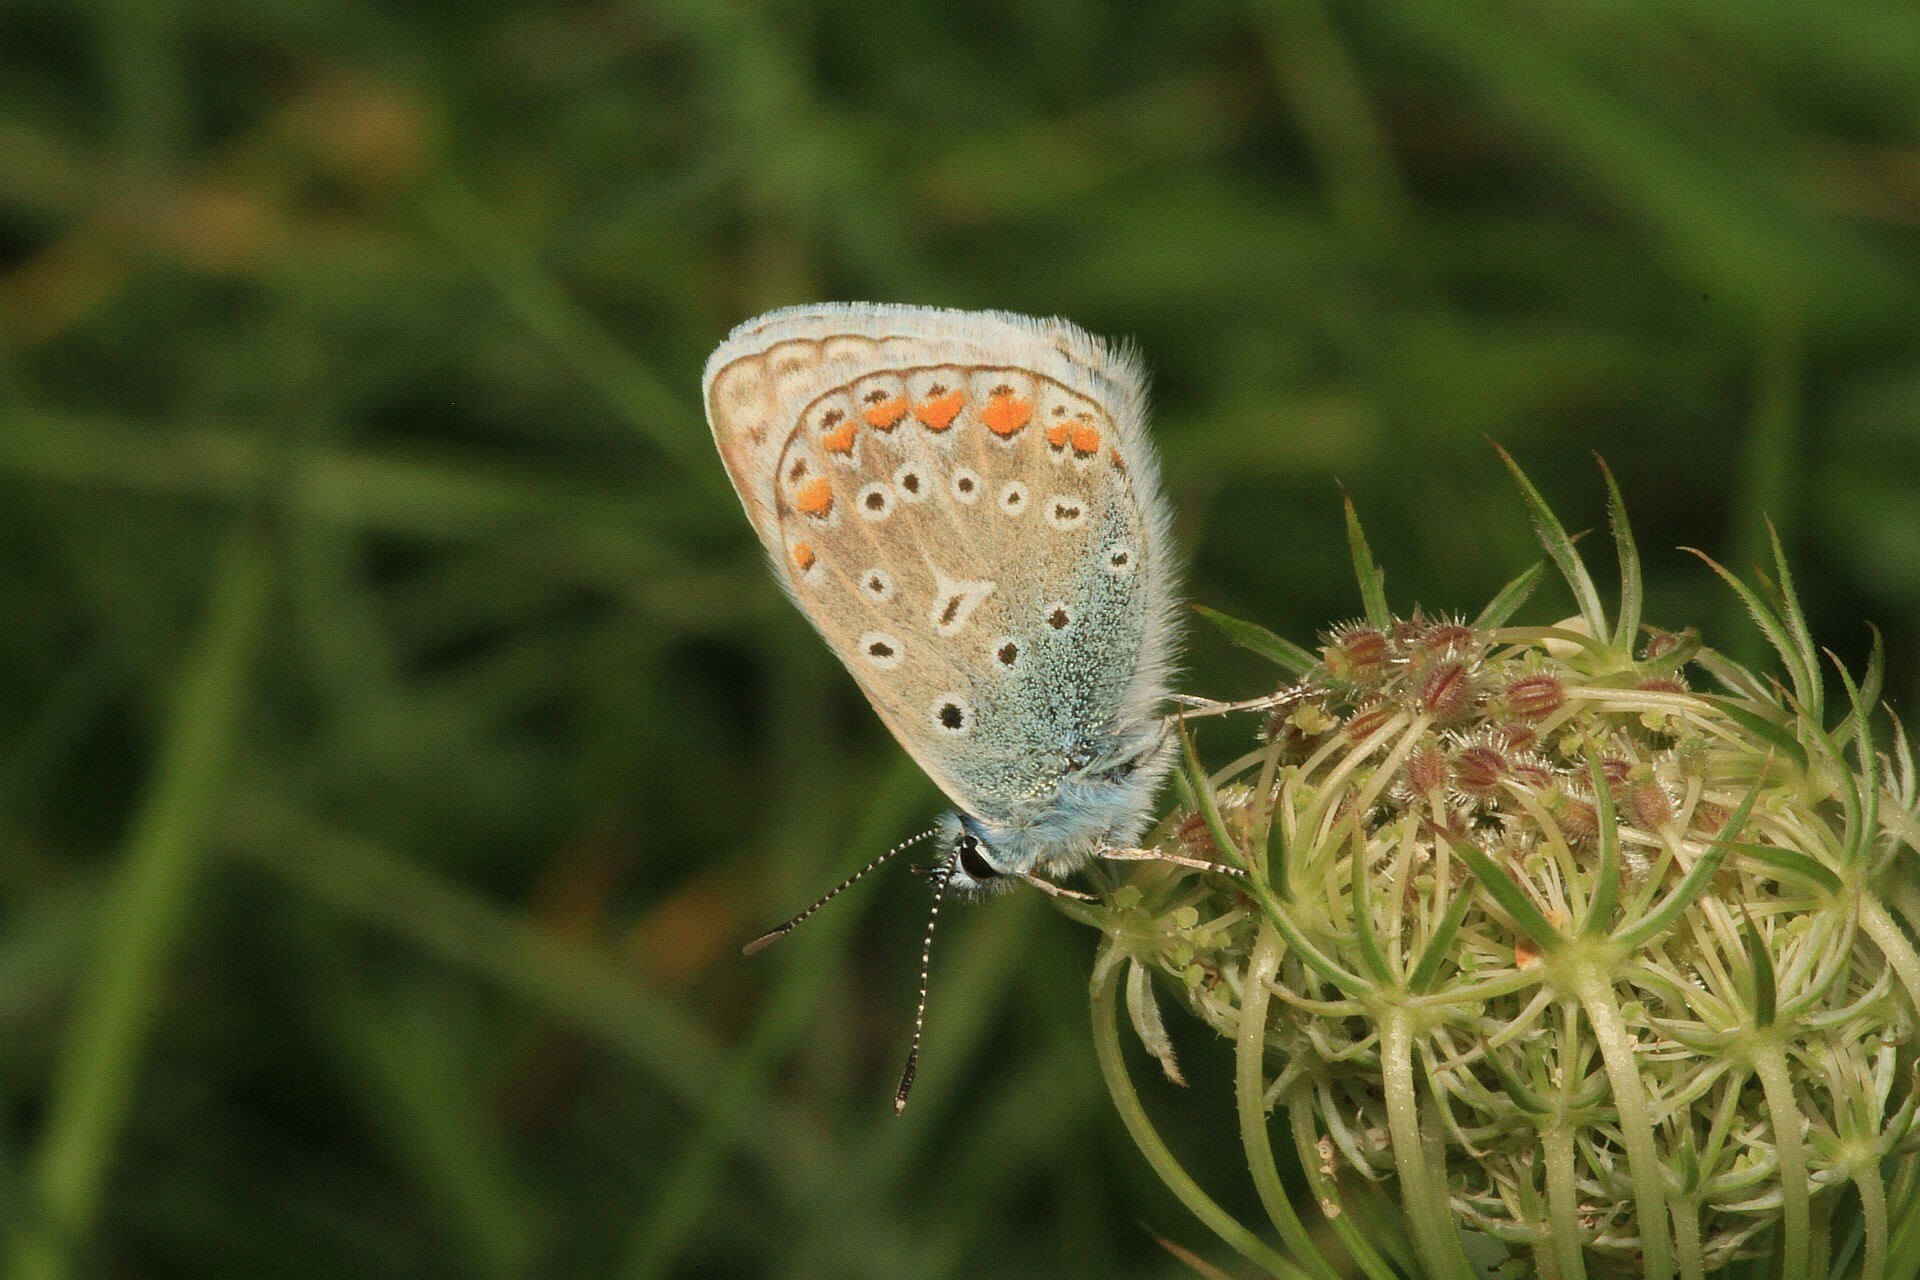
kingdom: Animalia
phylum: Arthropoda
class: Insecta
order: Lepidoptera
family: Lycaenidae
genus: Polyommatus
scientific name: Polyommatus icarus
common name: Common blue
